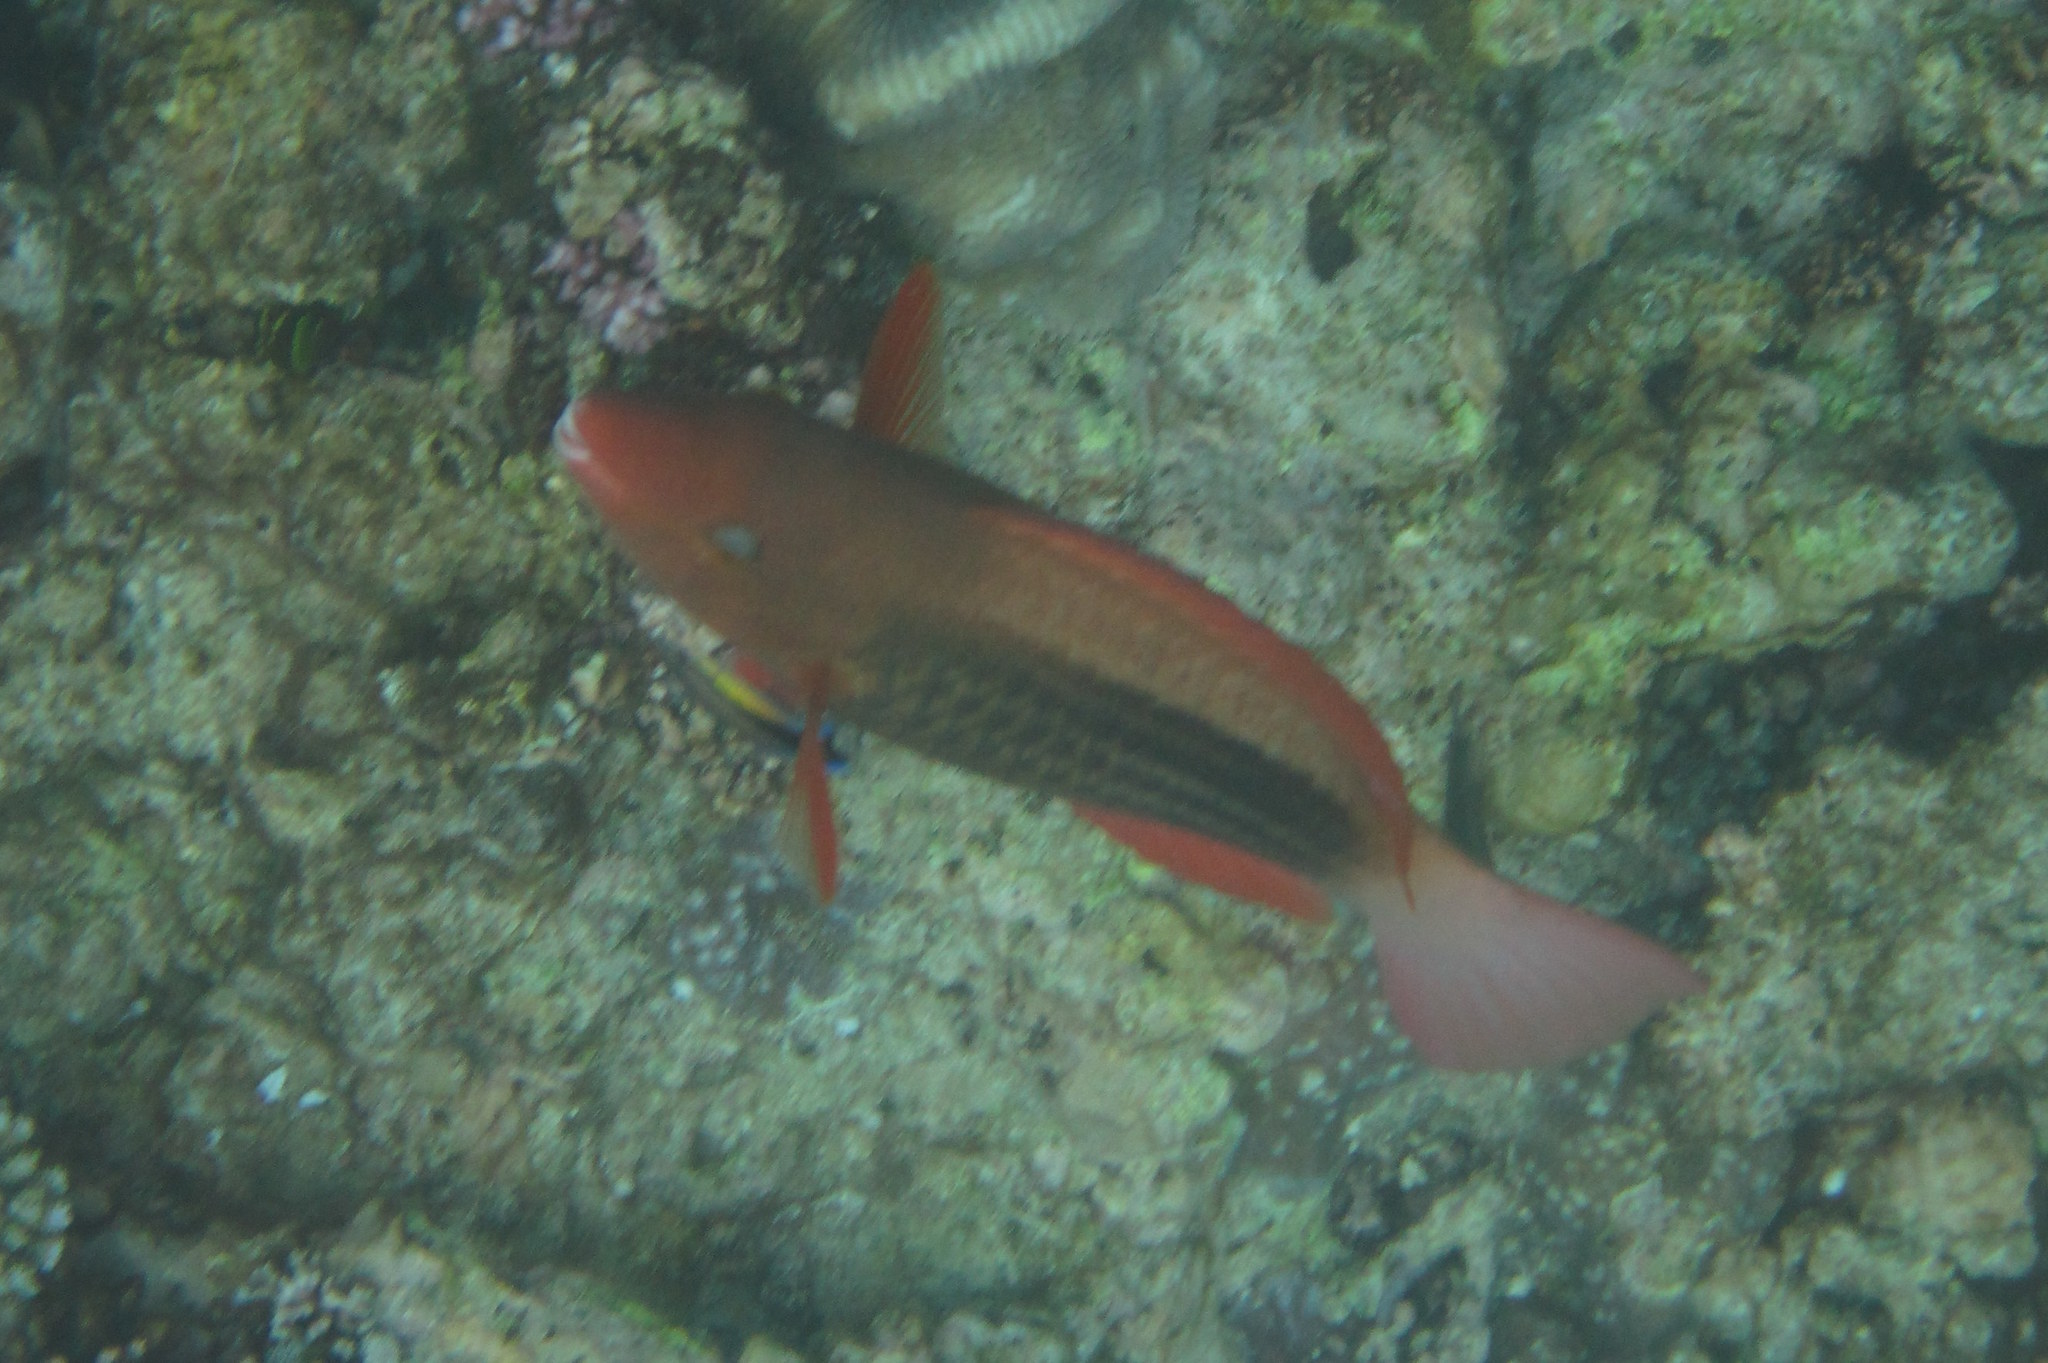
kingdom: Animalia
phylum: Chordata
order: Perciformes
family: Scaridae
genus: Scarus
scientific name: Scarus frenatus
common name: Bridled parrotfish
